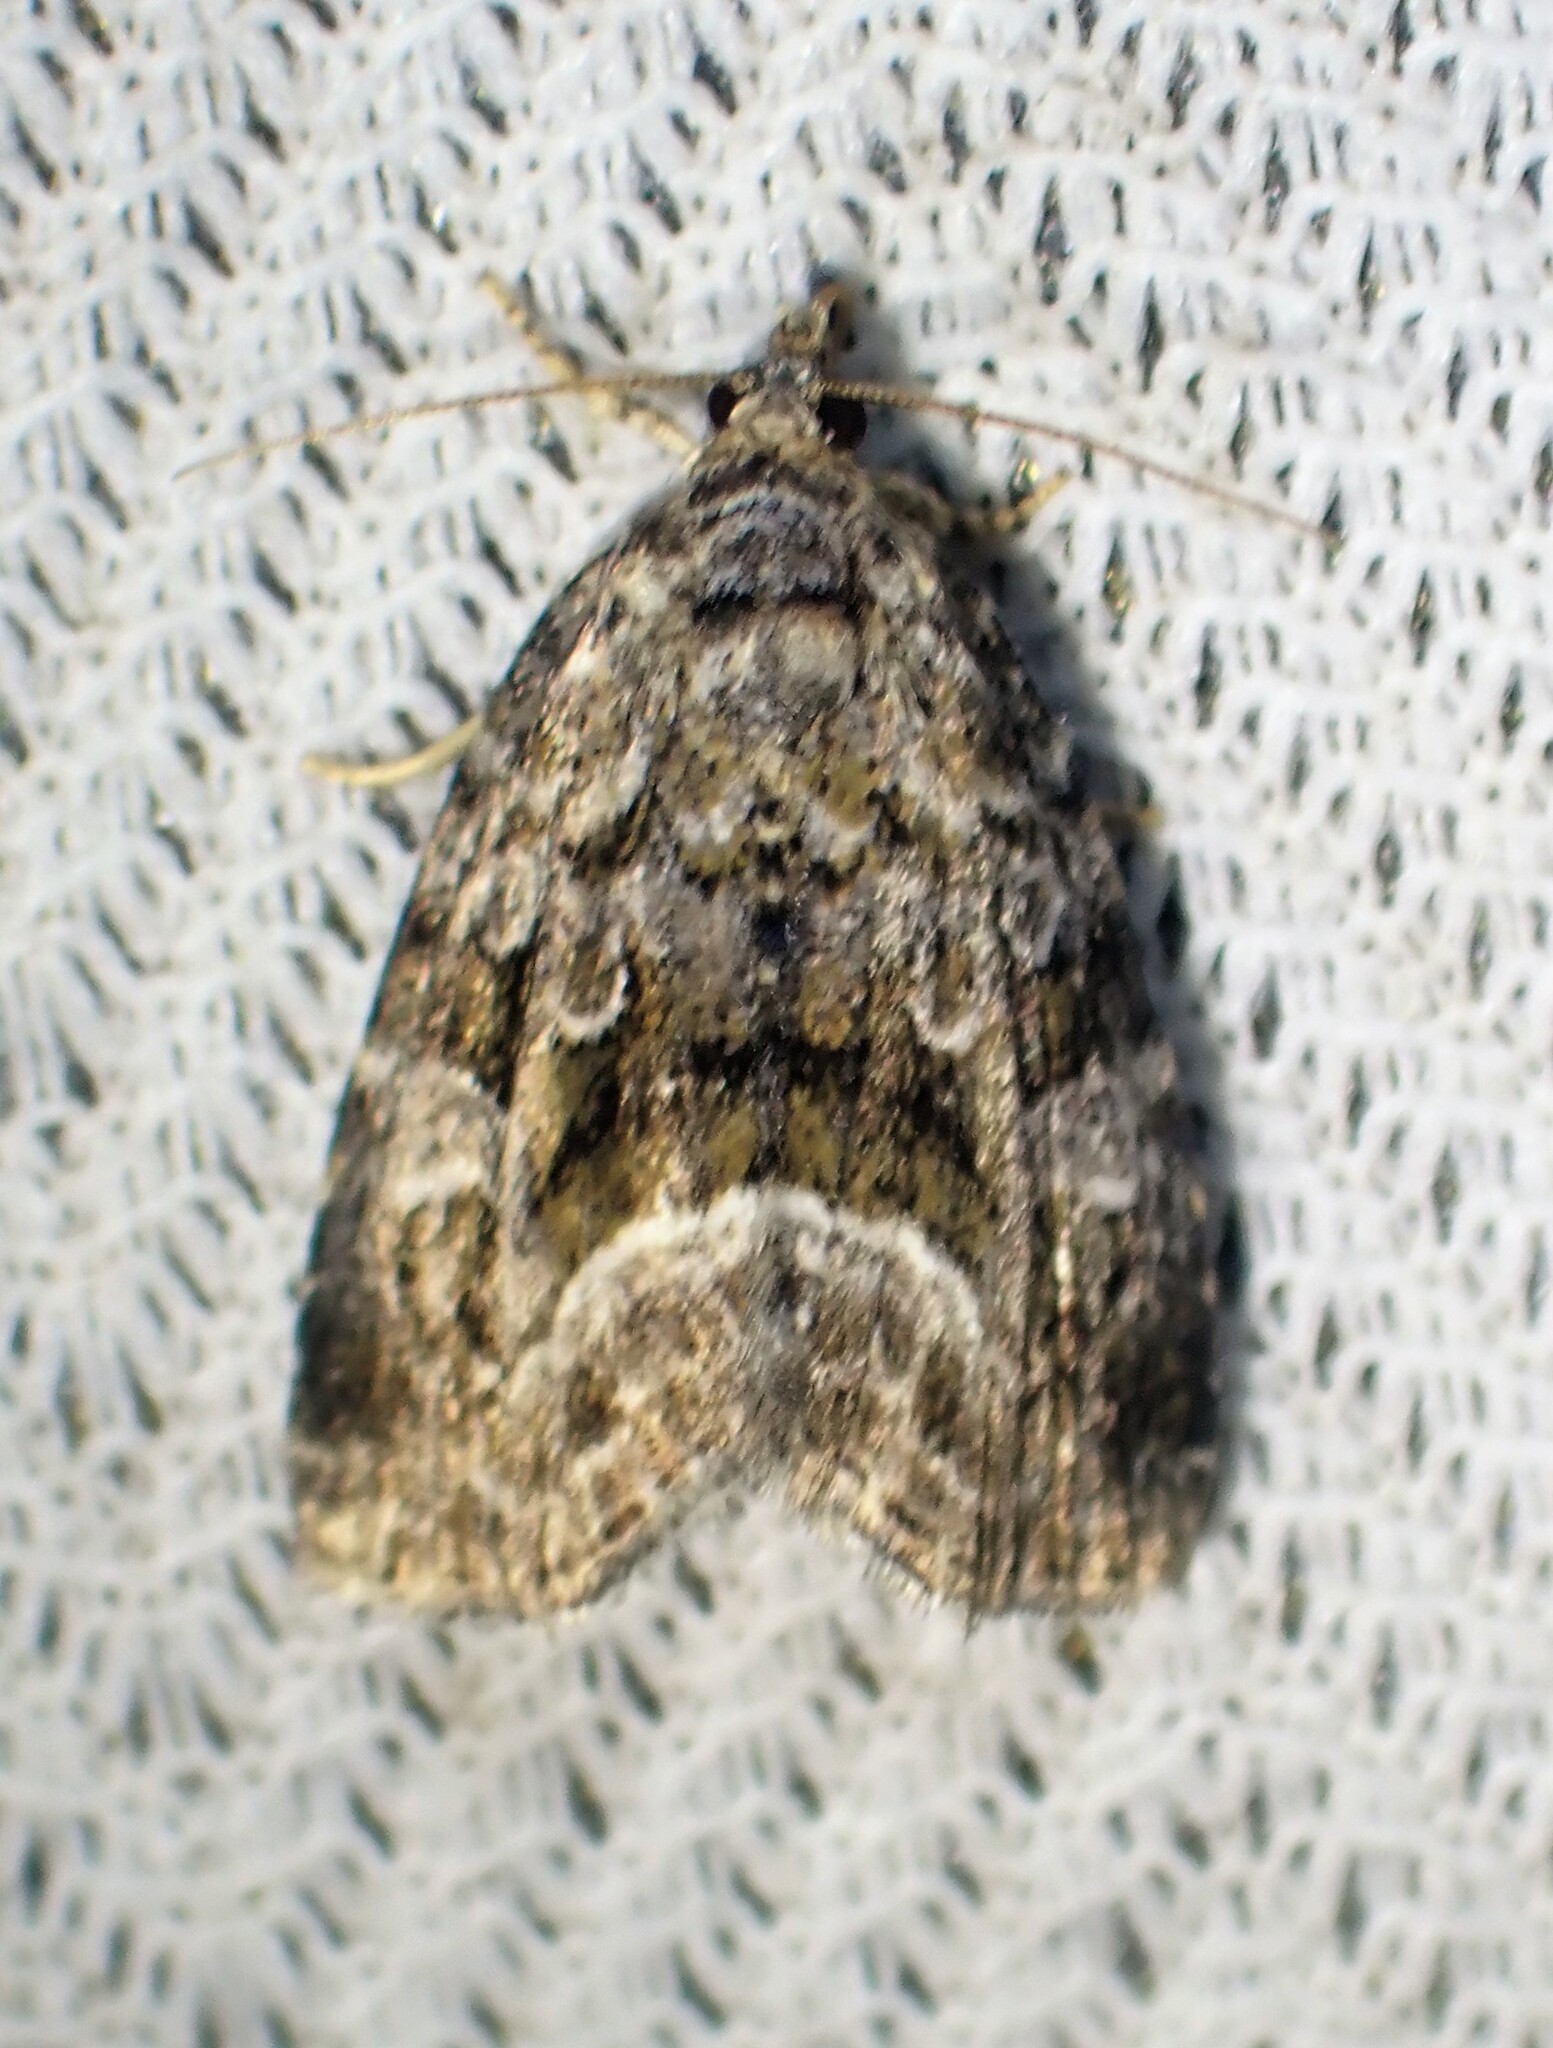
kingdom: Animalia
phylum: Arthropoda
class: Insecta
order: Lepidoptera
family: Noctuidae
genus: Protodeltote
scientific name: Protodeltote muscosula
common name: Large mossy glyph
